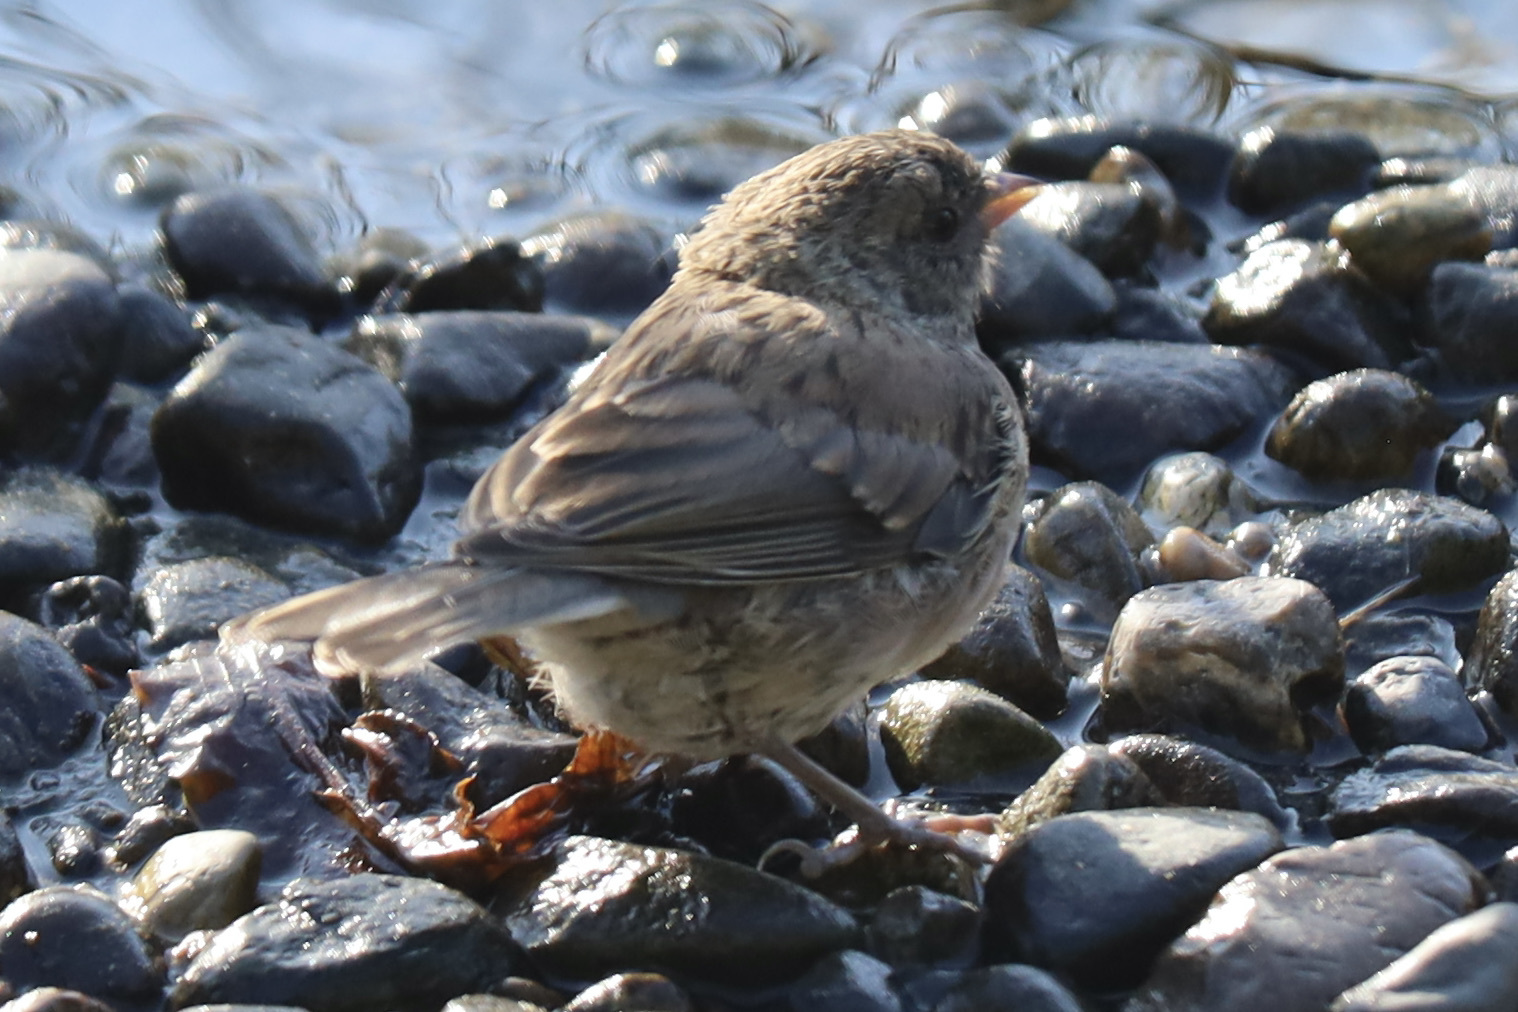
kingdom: Animalia
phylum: Chordata
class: Aves
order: Passeriformes
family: Passerellidae
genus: Junco
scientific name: Junco hyemalis
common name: Dark-eyed junco
